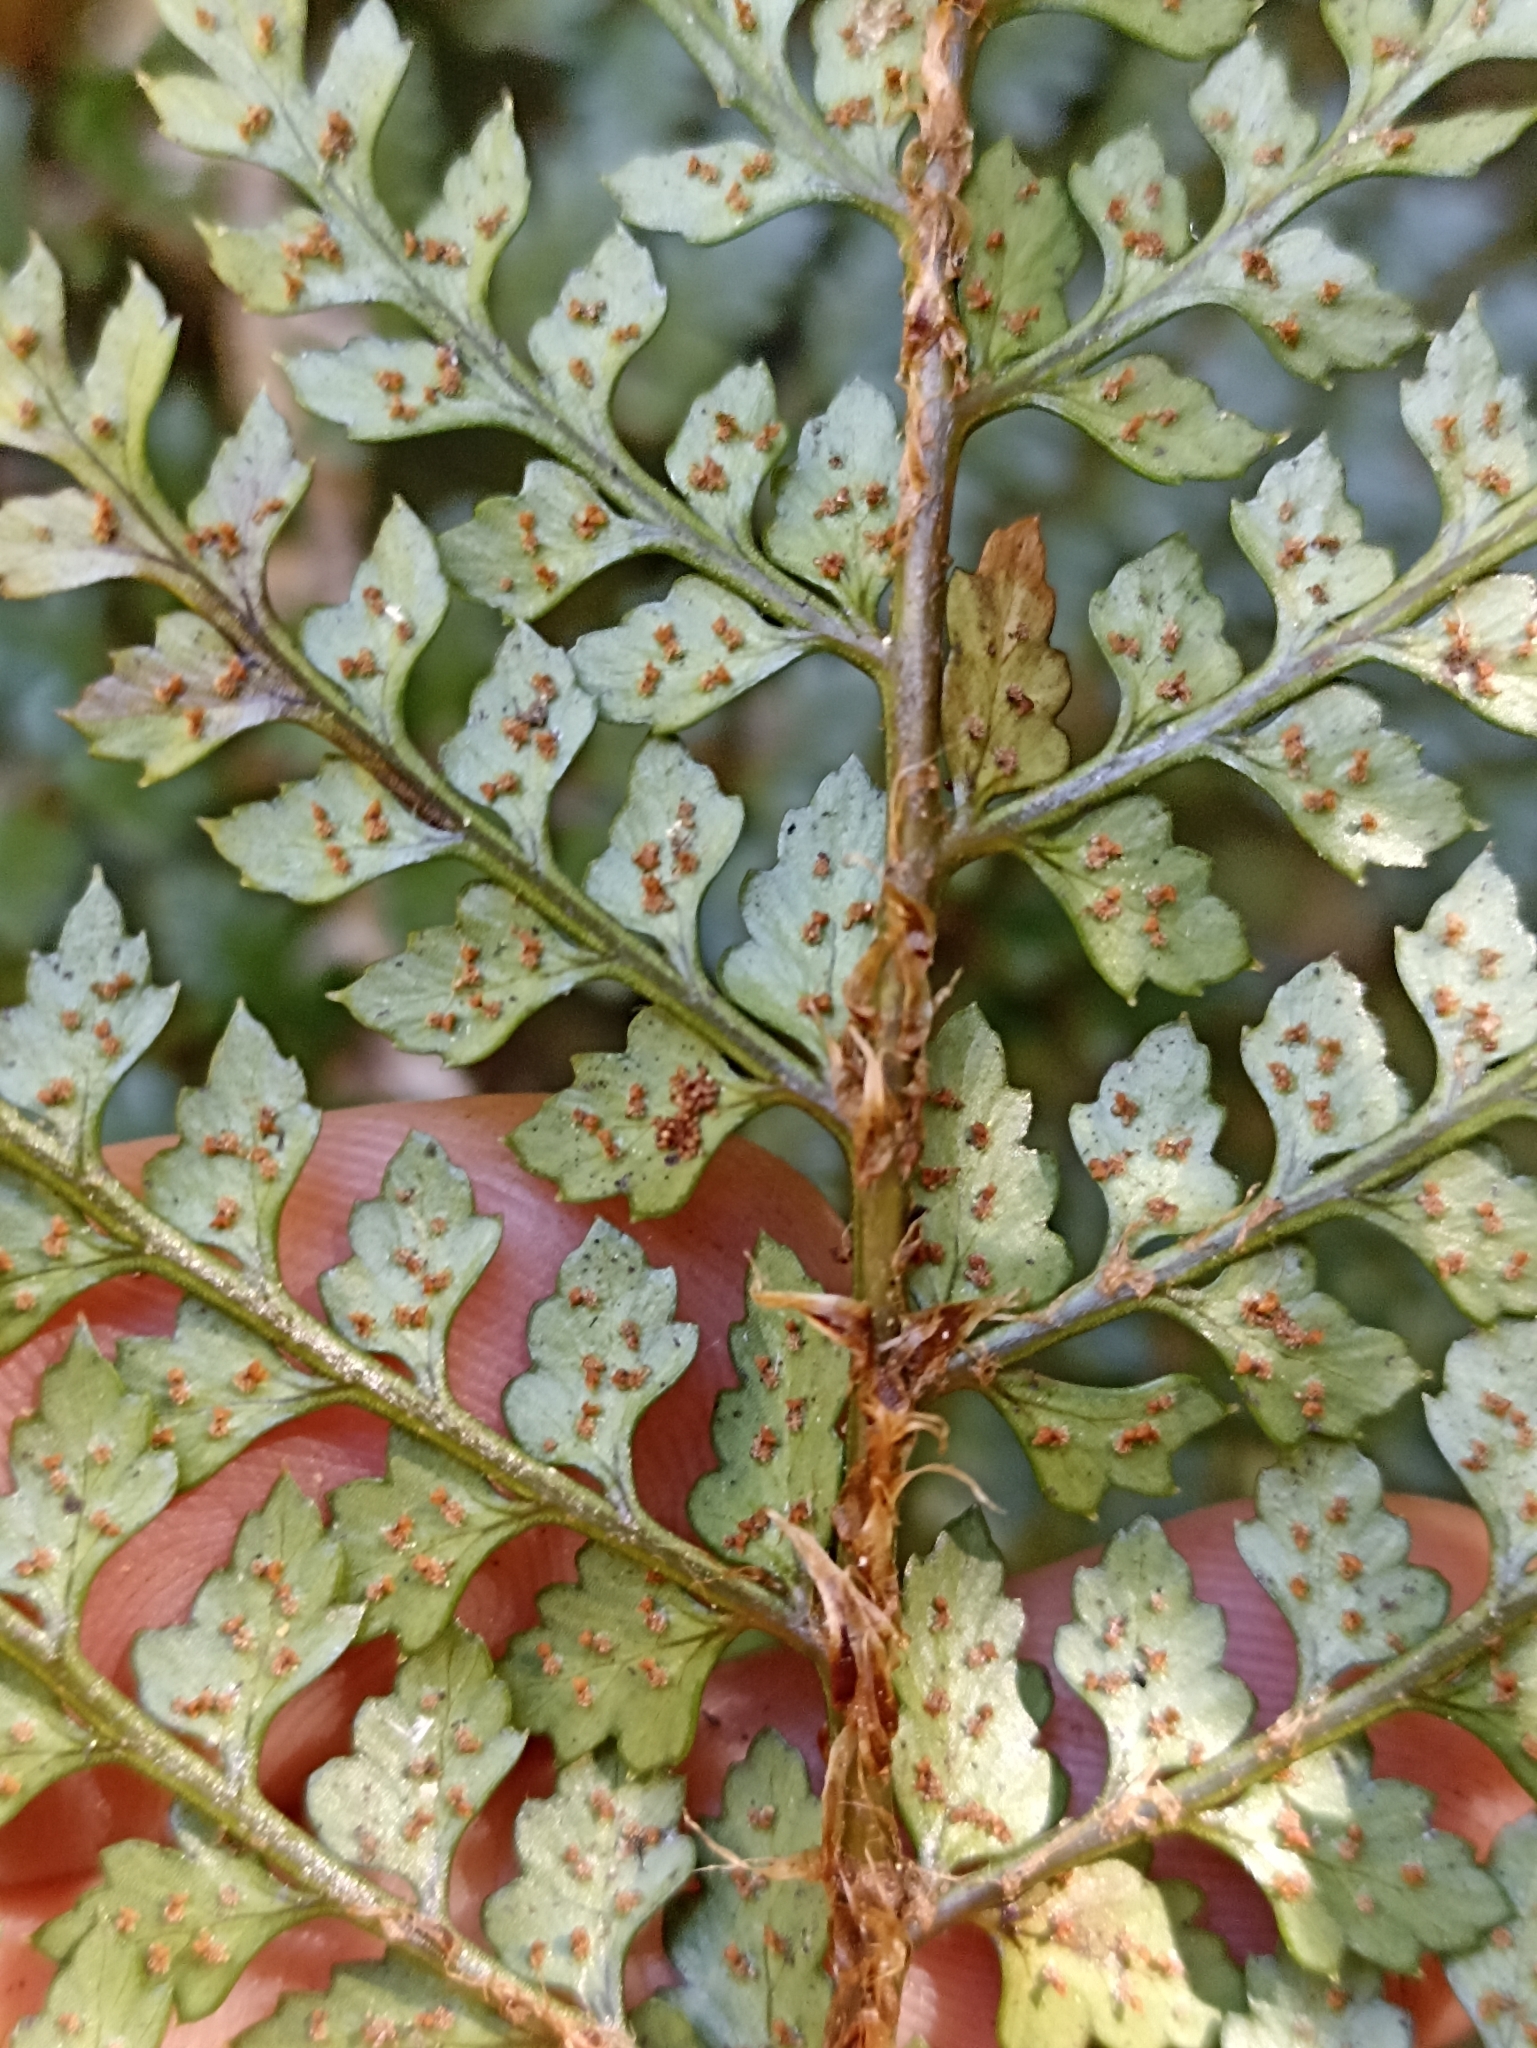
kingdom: Plantae
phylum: Tracheophyta
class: Polypodiopsida
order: Polypodiales
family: Dryopteridaceae
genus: Polystichum
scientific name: Polystichum vestitum
